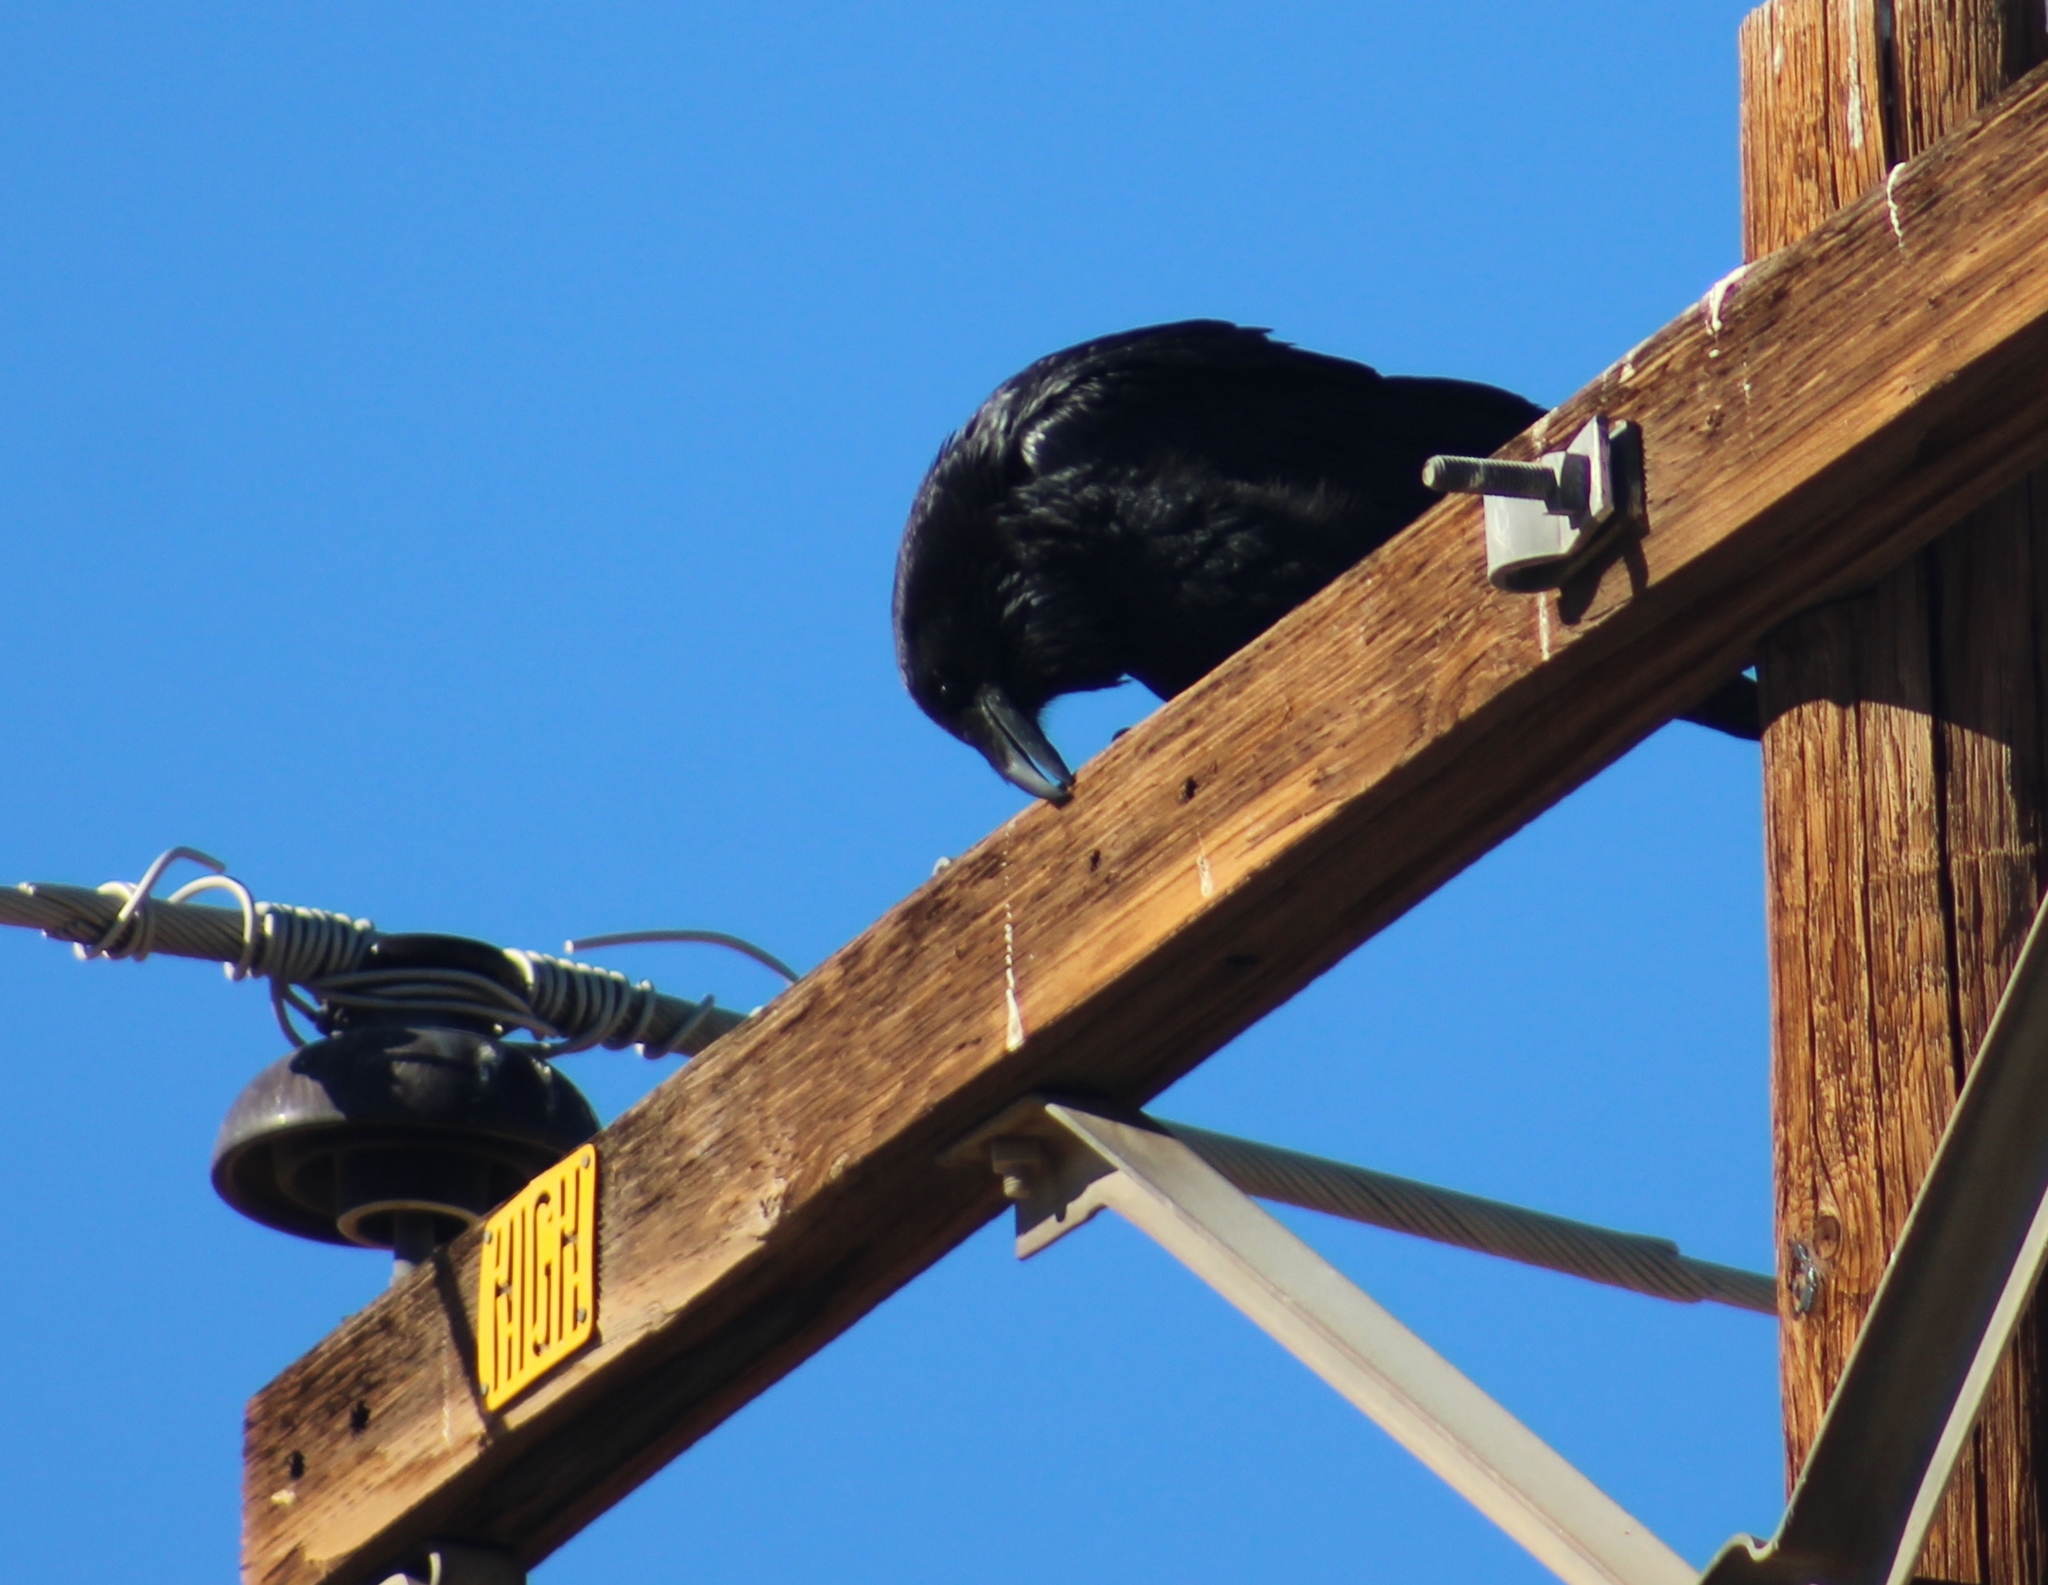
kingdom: Animalia
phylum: Chordata
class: Aves
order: Passeriformes
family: Corvidae
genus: Corvus
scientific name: Corvus corax
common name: Common raven
